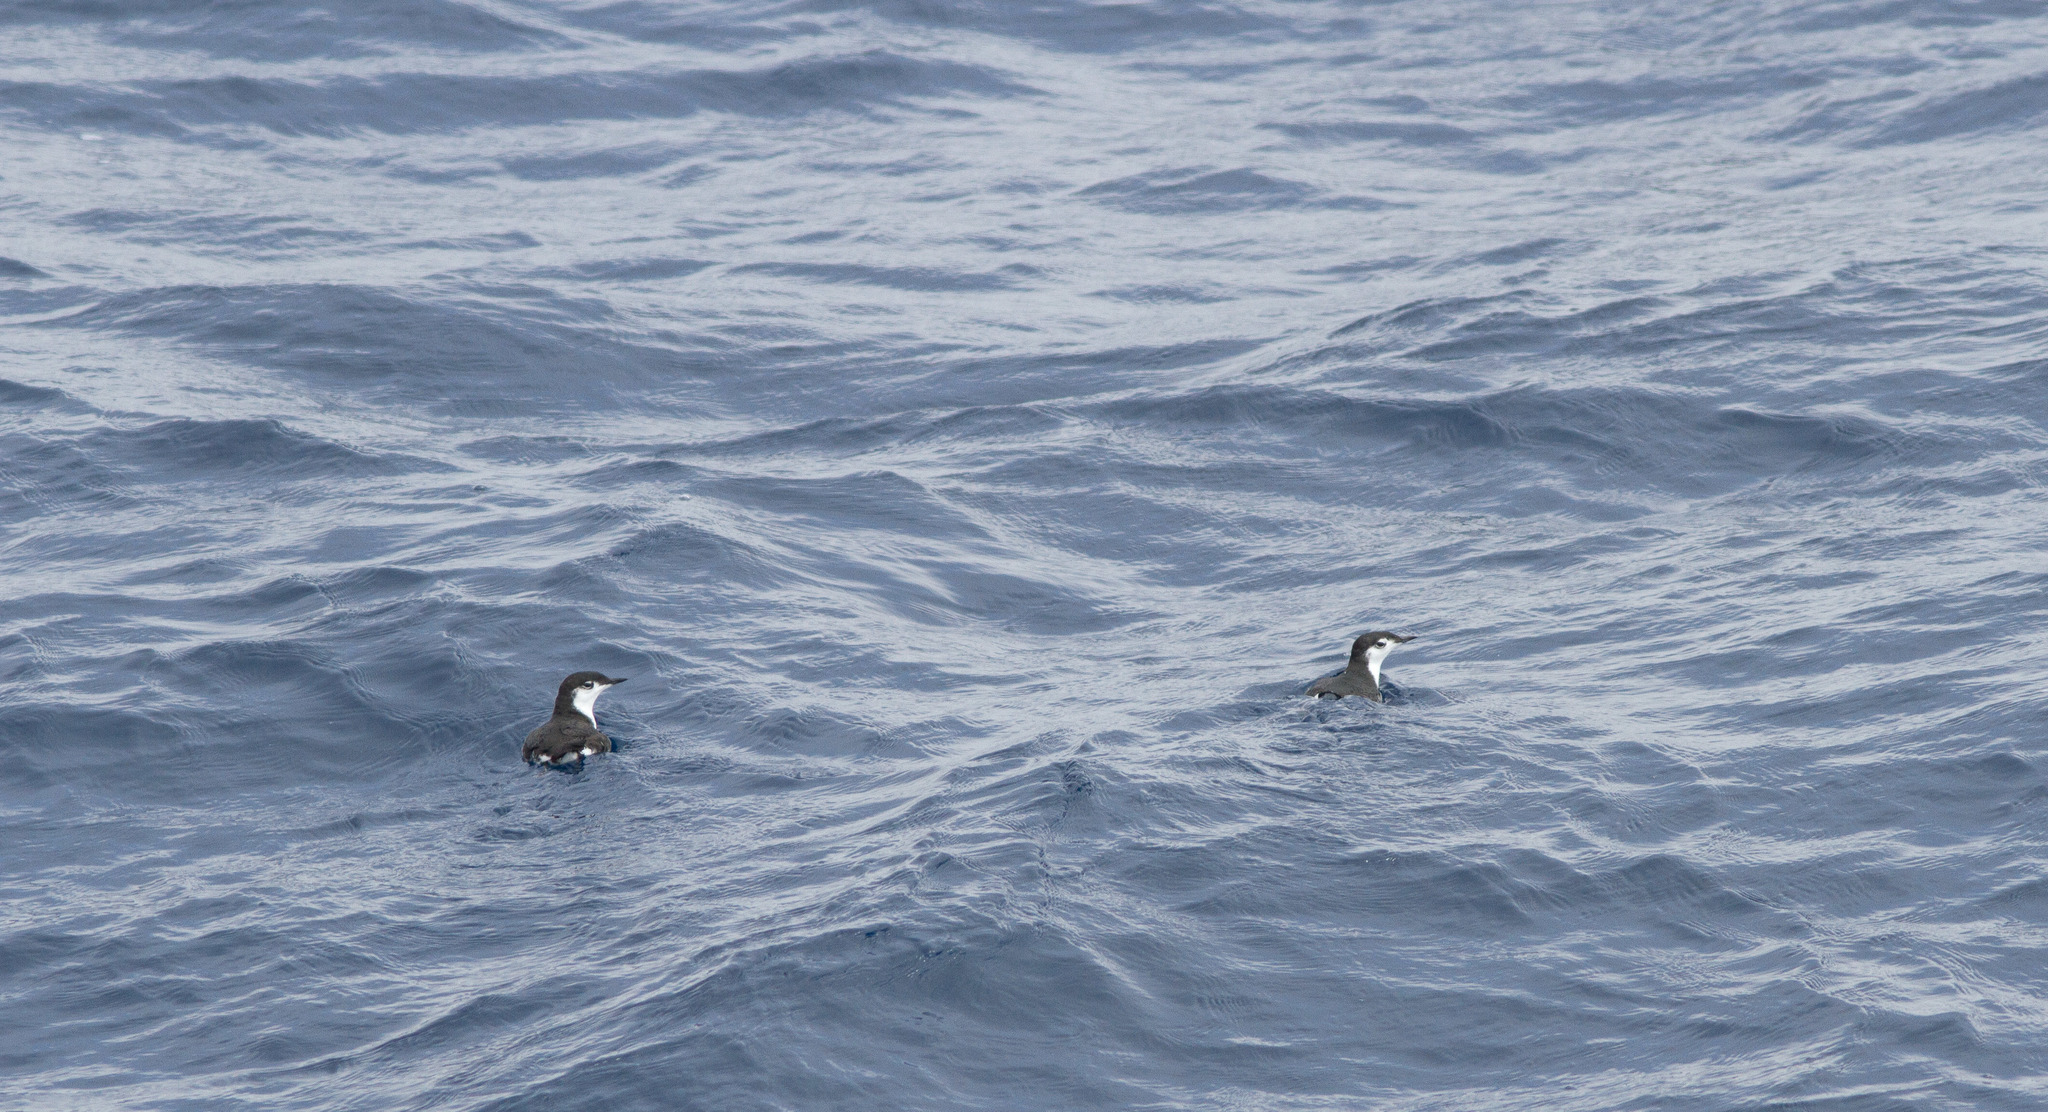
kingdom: Animalia
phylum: Chordata
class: Aves
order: Charadriiformes
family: Alcidae
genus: Synthliboramphus
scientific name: Synthliboramphus hypoleucus
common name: Guadalupe murrelet
